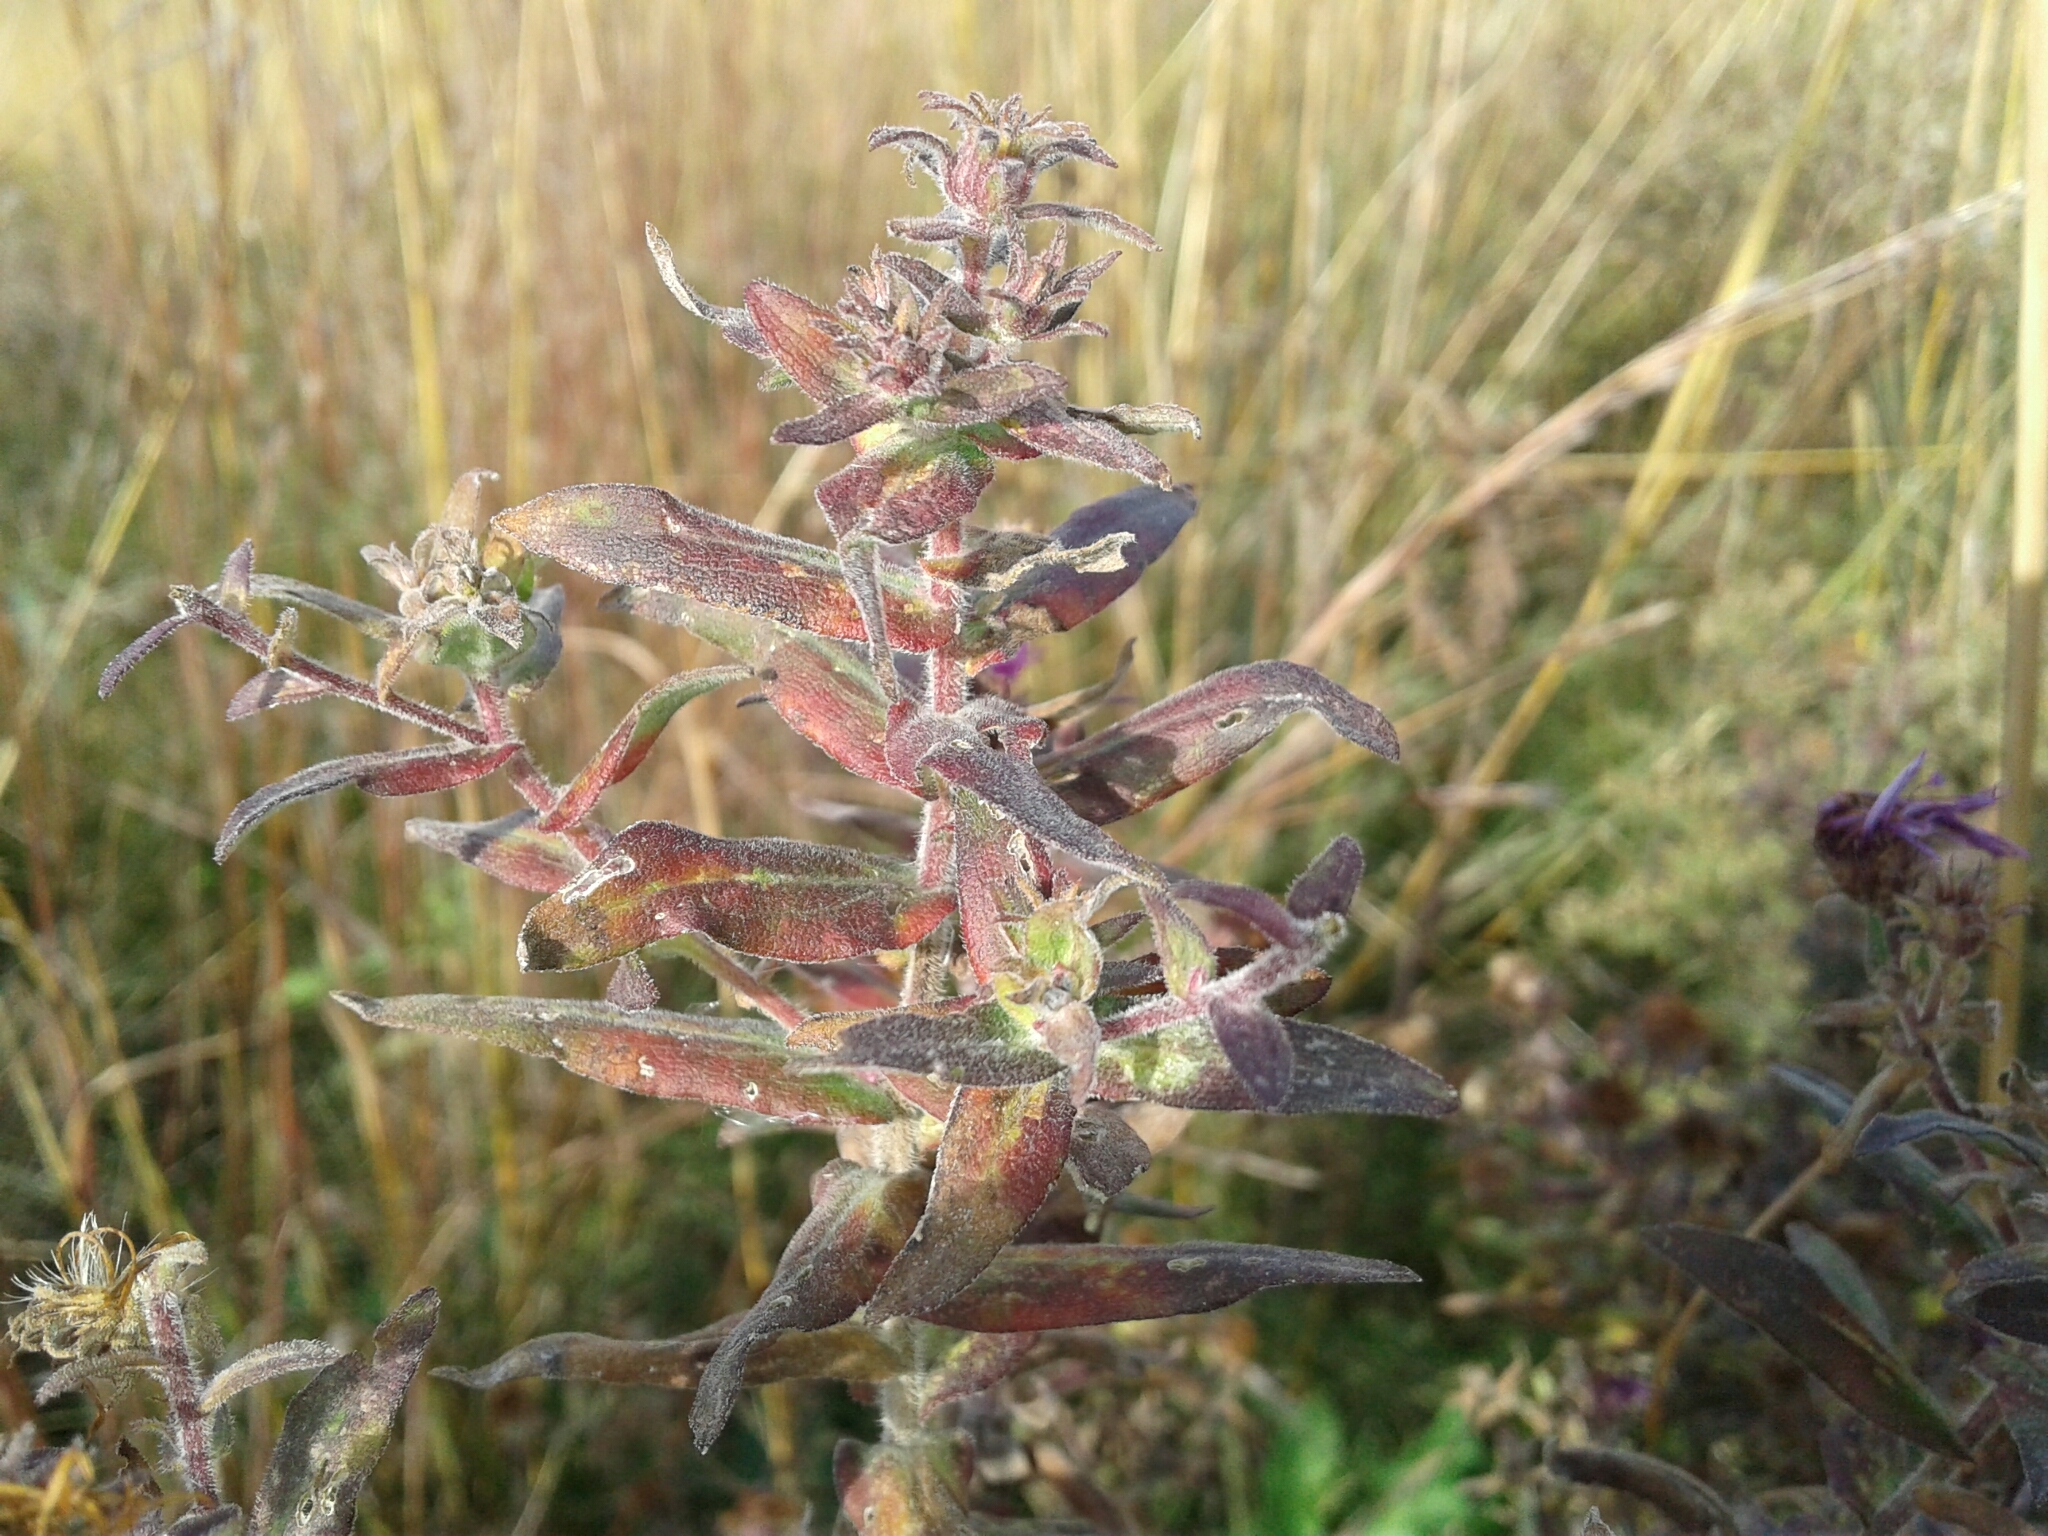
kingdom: Plantae
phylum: Tracheophyta
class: Magnoliopsida
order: Asterales
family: Asteraceae
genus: Symphyotrichum
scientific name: Symphyotrichum novae-angliae
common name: Michaelmas daisy
